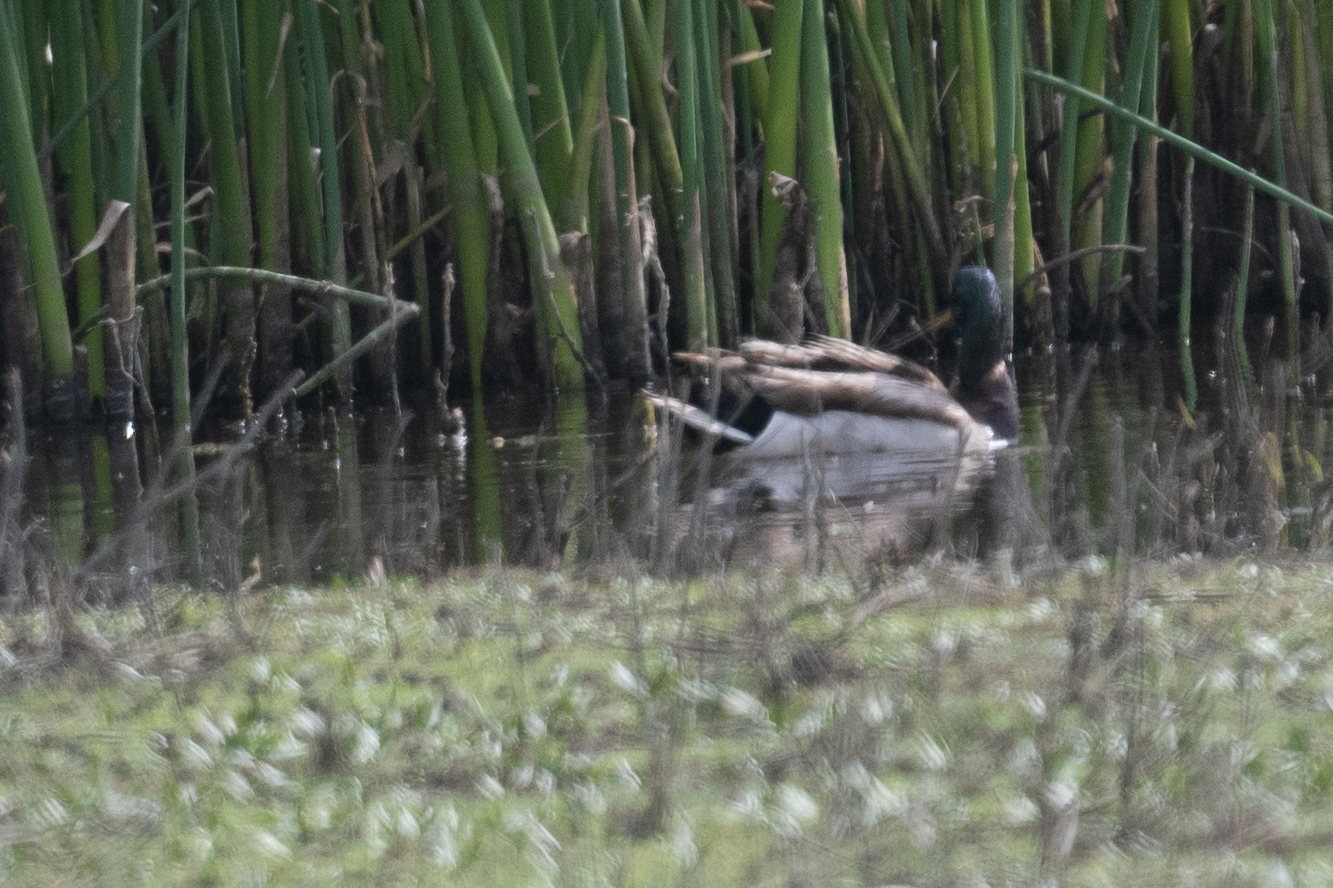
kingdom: Animalia
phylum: Chordata
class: Aves
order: Anseriformes
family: Anatidae
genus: Anas
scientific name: Anas platyrhynchos
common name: Mallard
